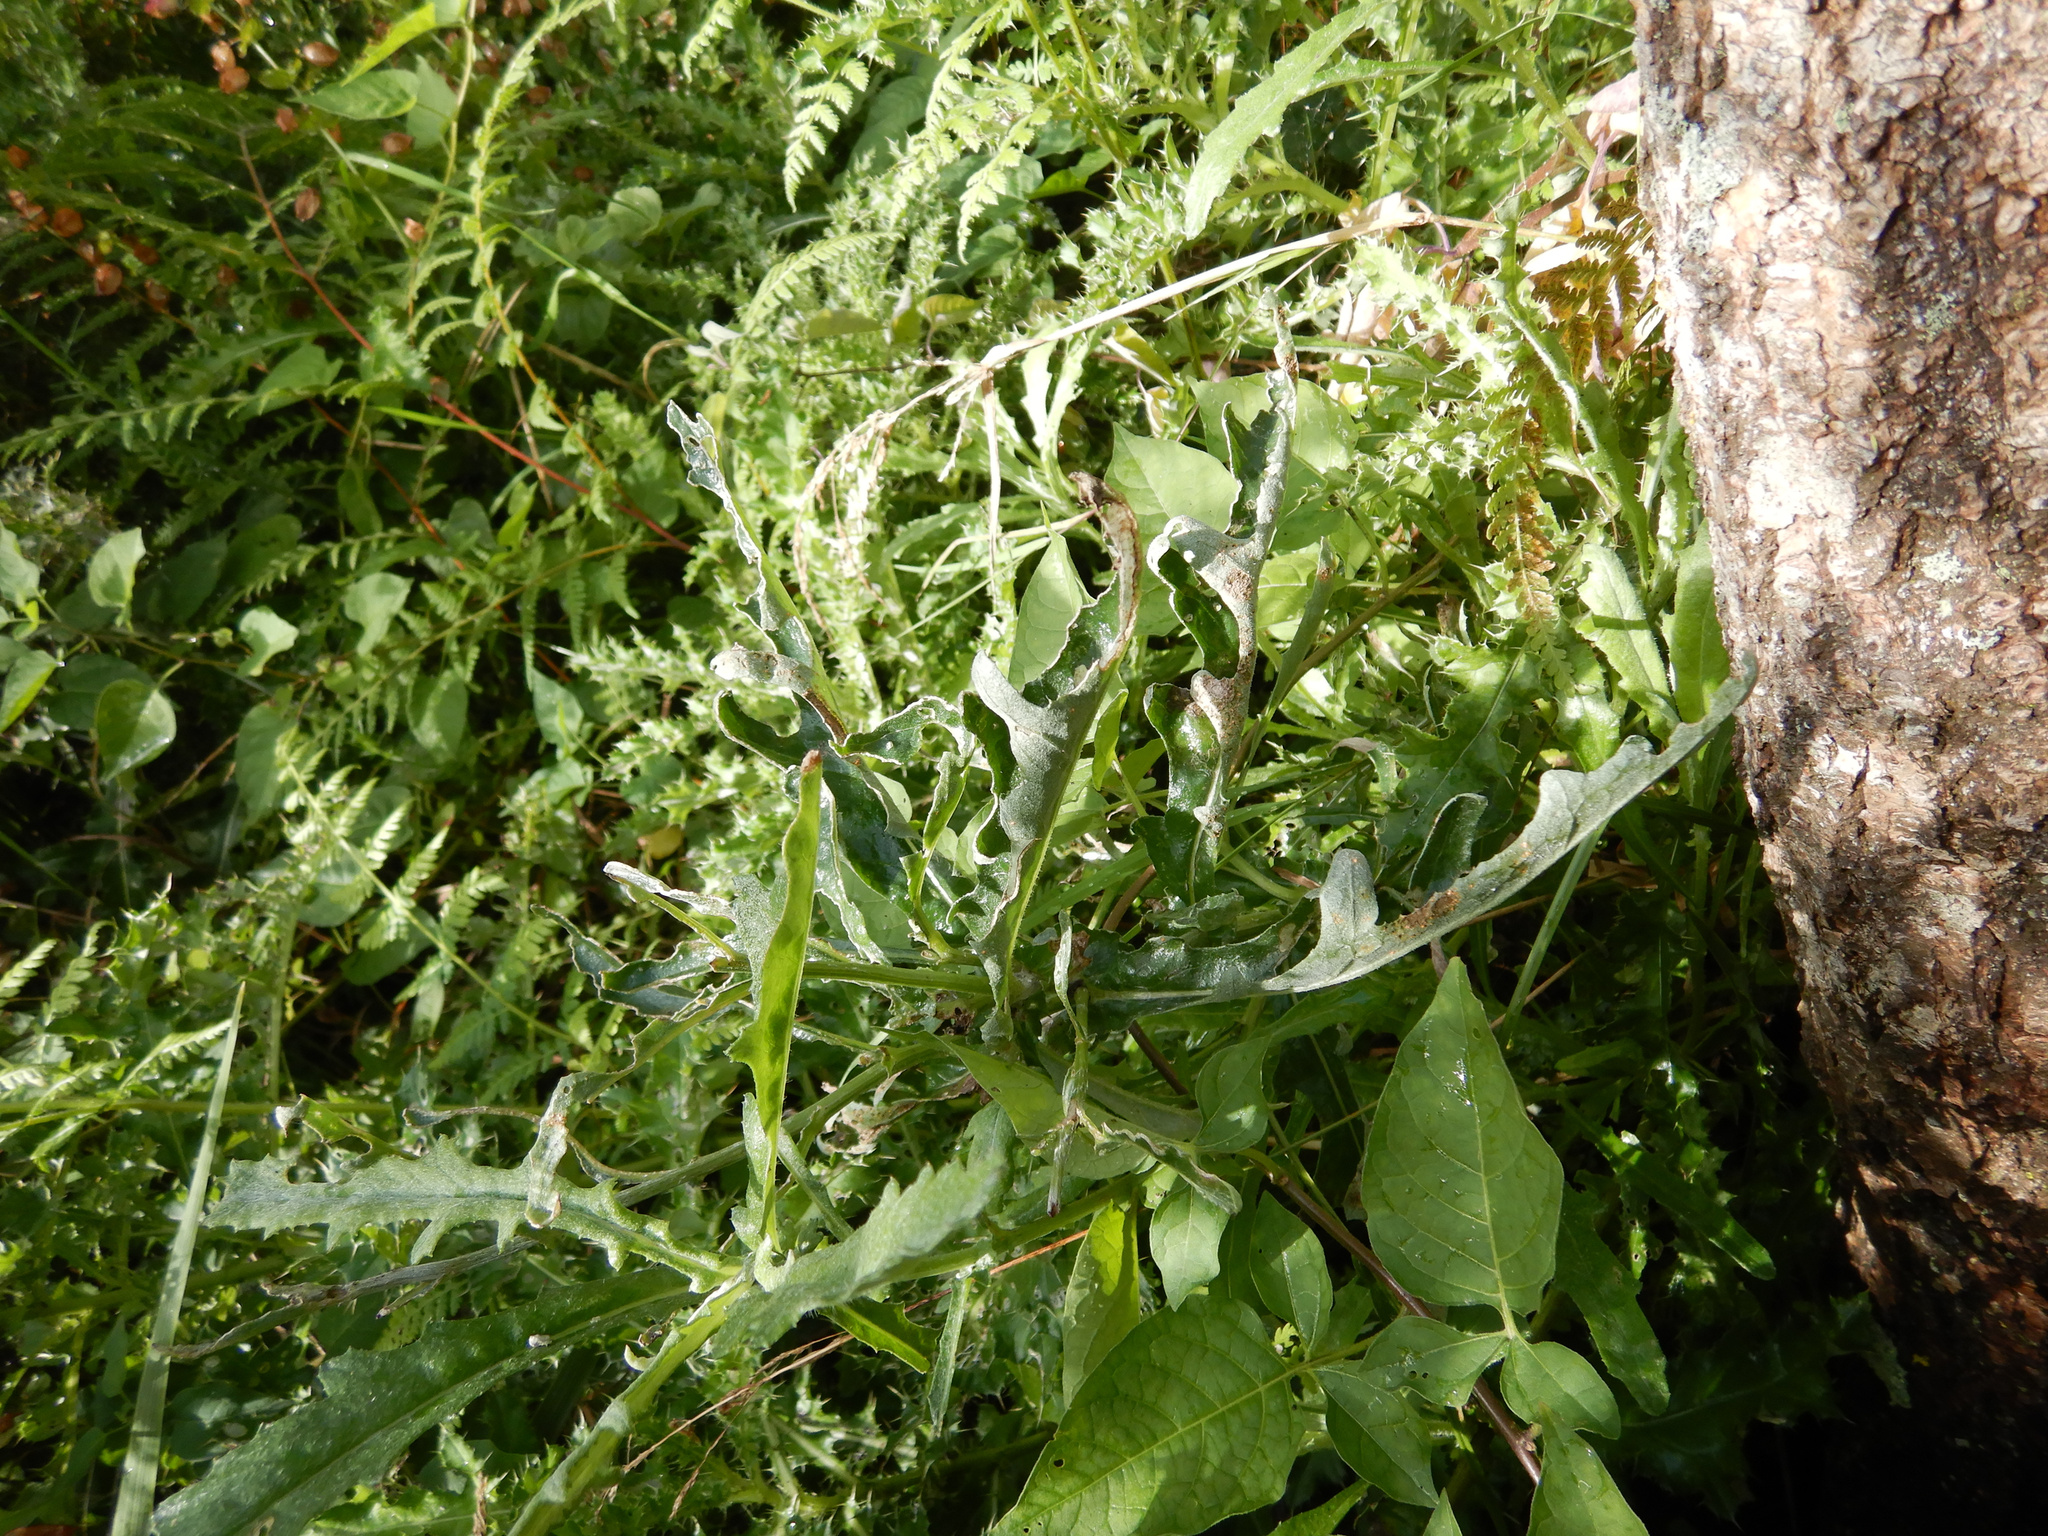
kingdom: Plantae
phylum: Tracheophyta
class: Magnoliopsida
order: Asterales
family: Asteraceae
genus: Senecio
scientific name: Senecio glomeratus
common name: Cutleaf burnweed
